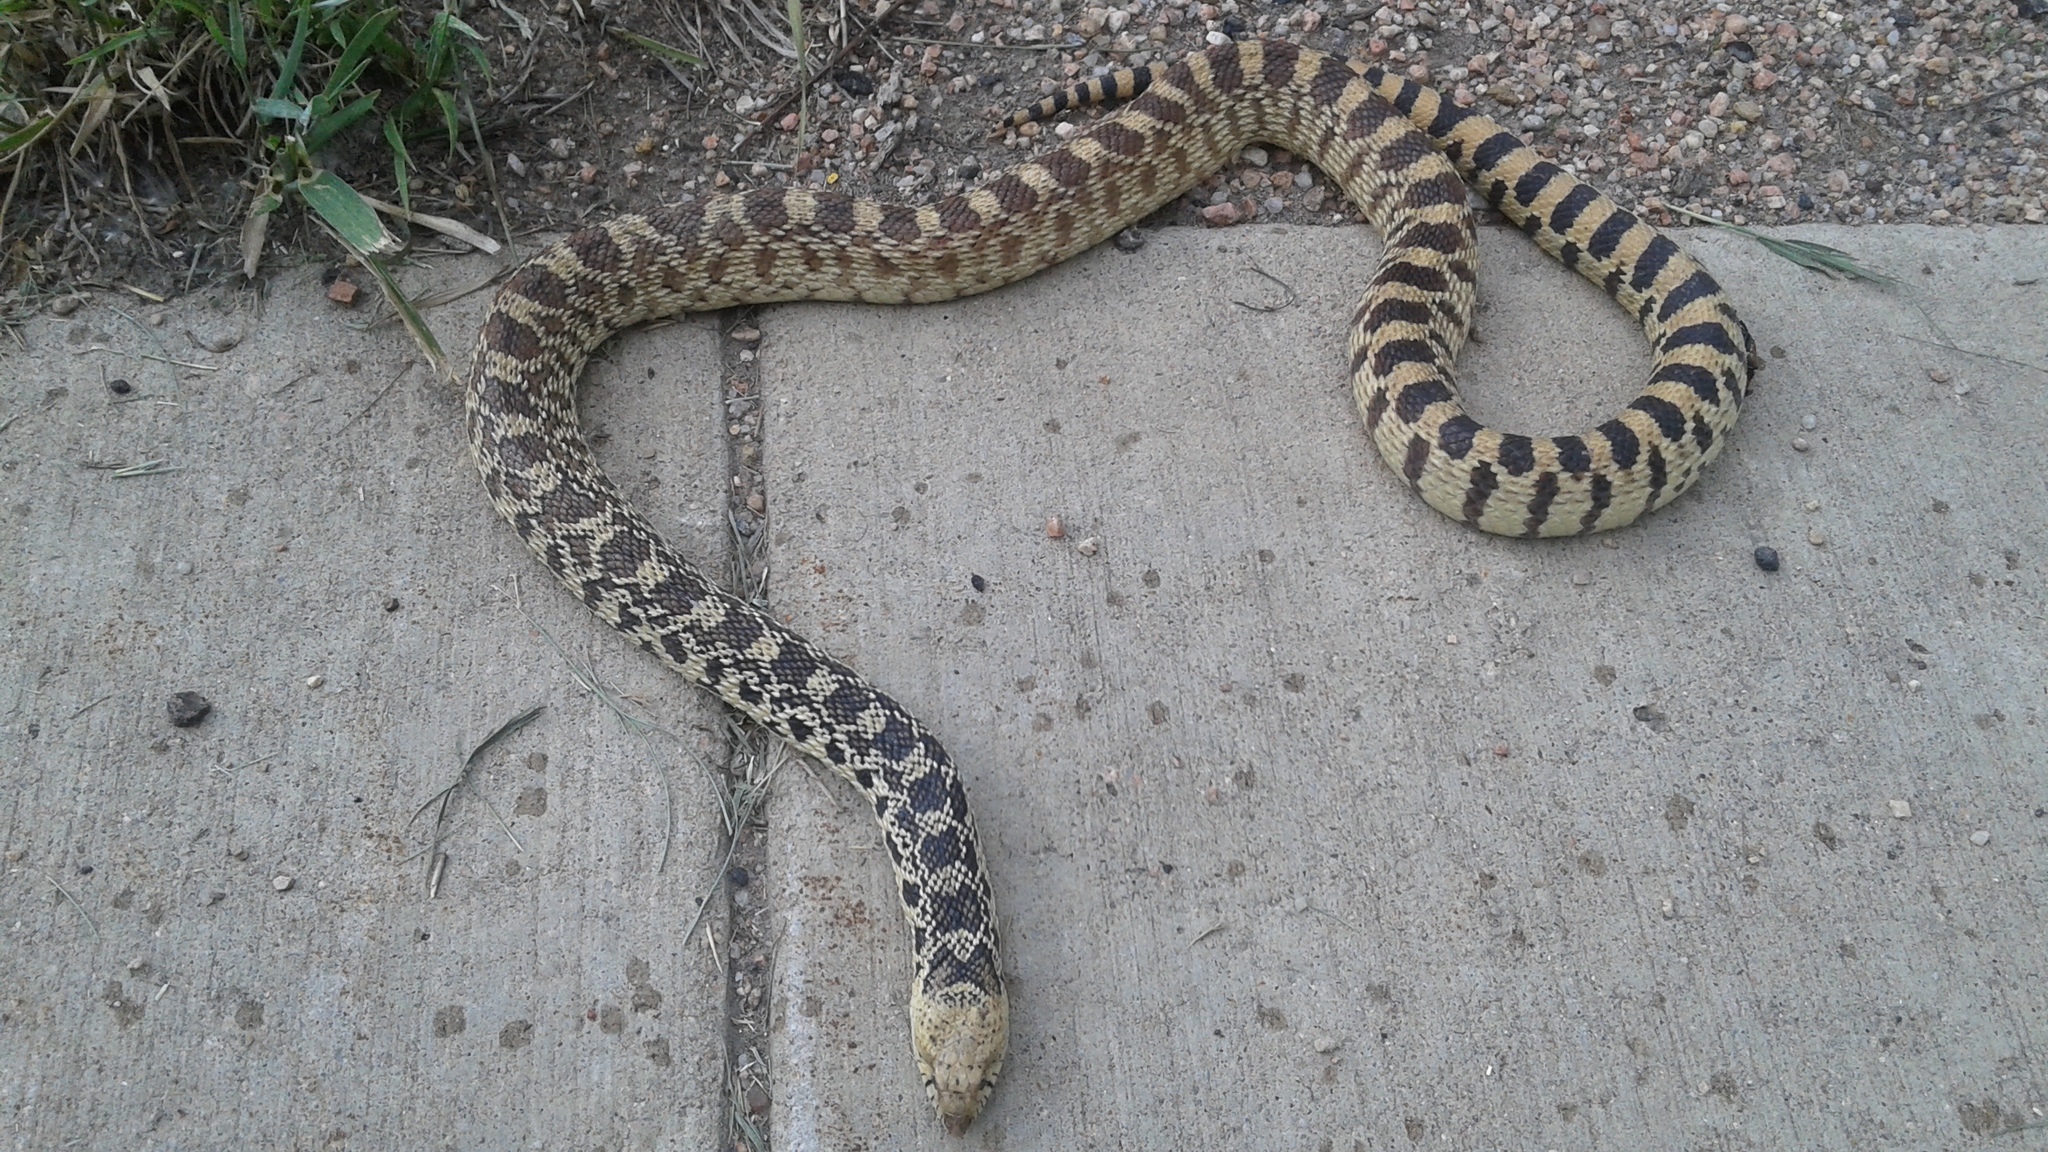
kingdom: Animalia
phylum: Chordata
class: Squamata
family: Colubridae
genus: Pituophis
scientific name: Pituophis catenifer
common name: Gopher snake
